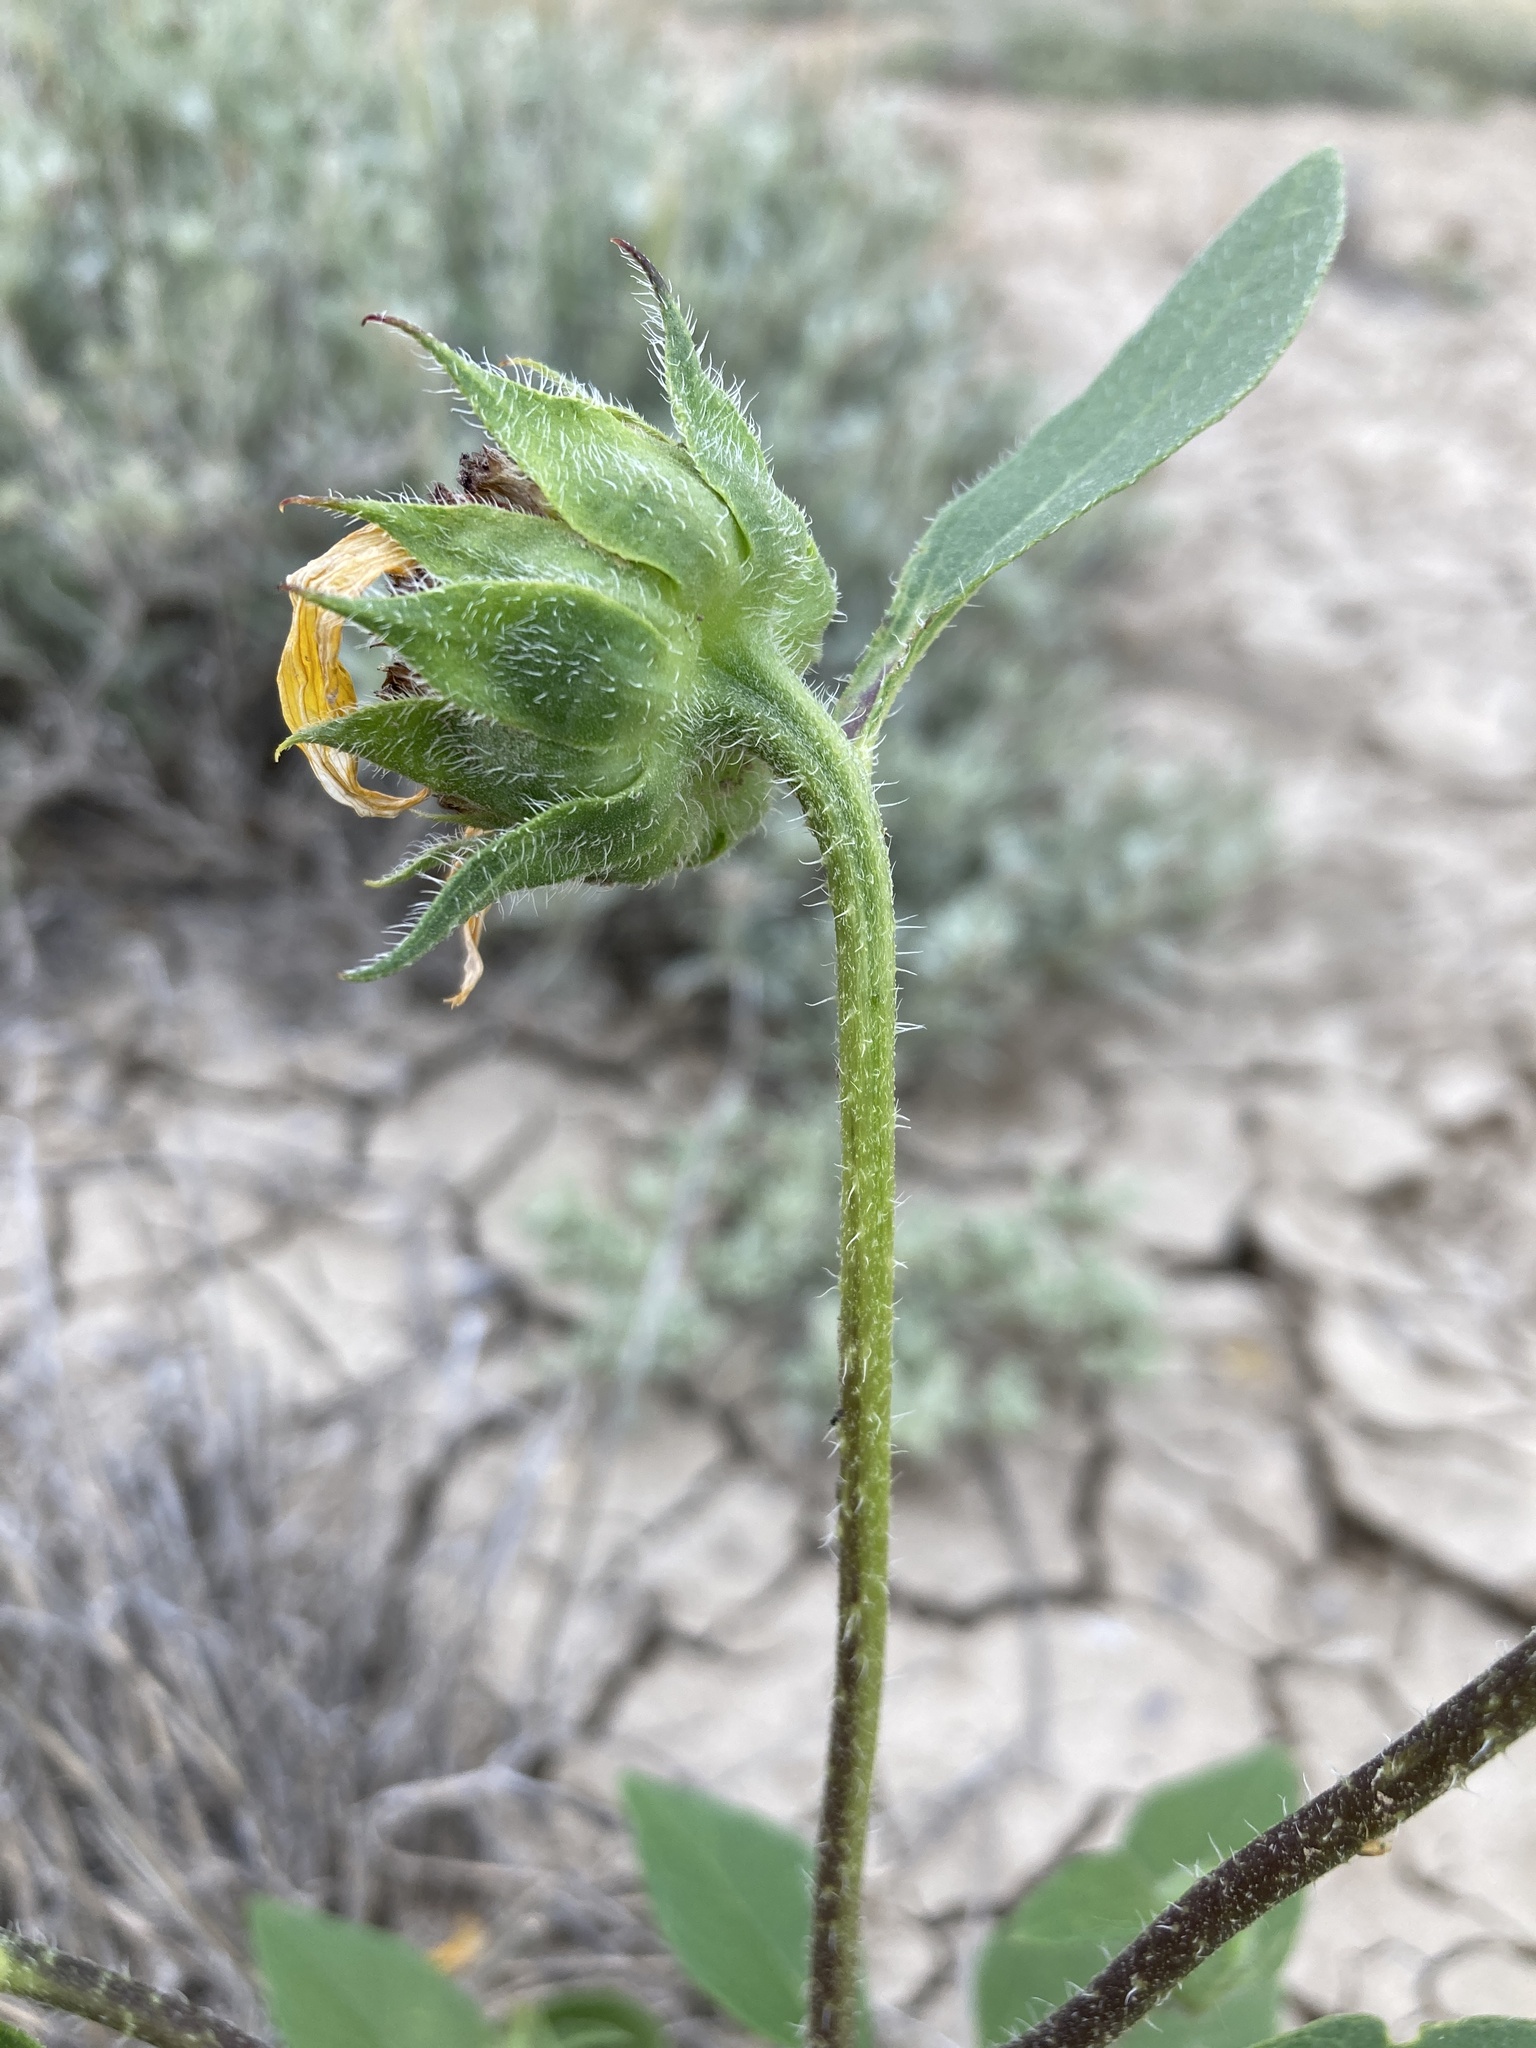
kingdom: Plantae
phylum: Tracheophyta
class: Magnoliopsida
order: Asterales
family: Asteraceae
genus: Helianthus
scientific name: Helianthus annuus
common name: Sunflower
